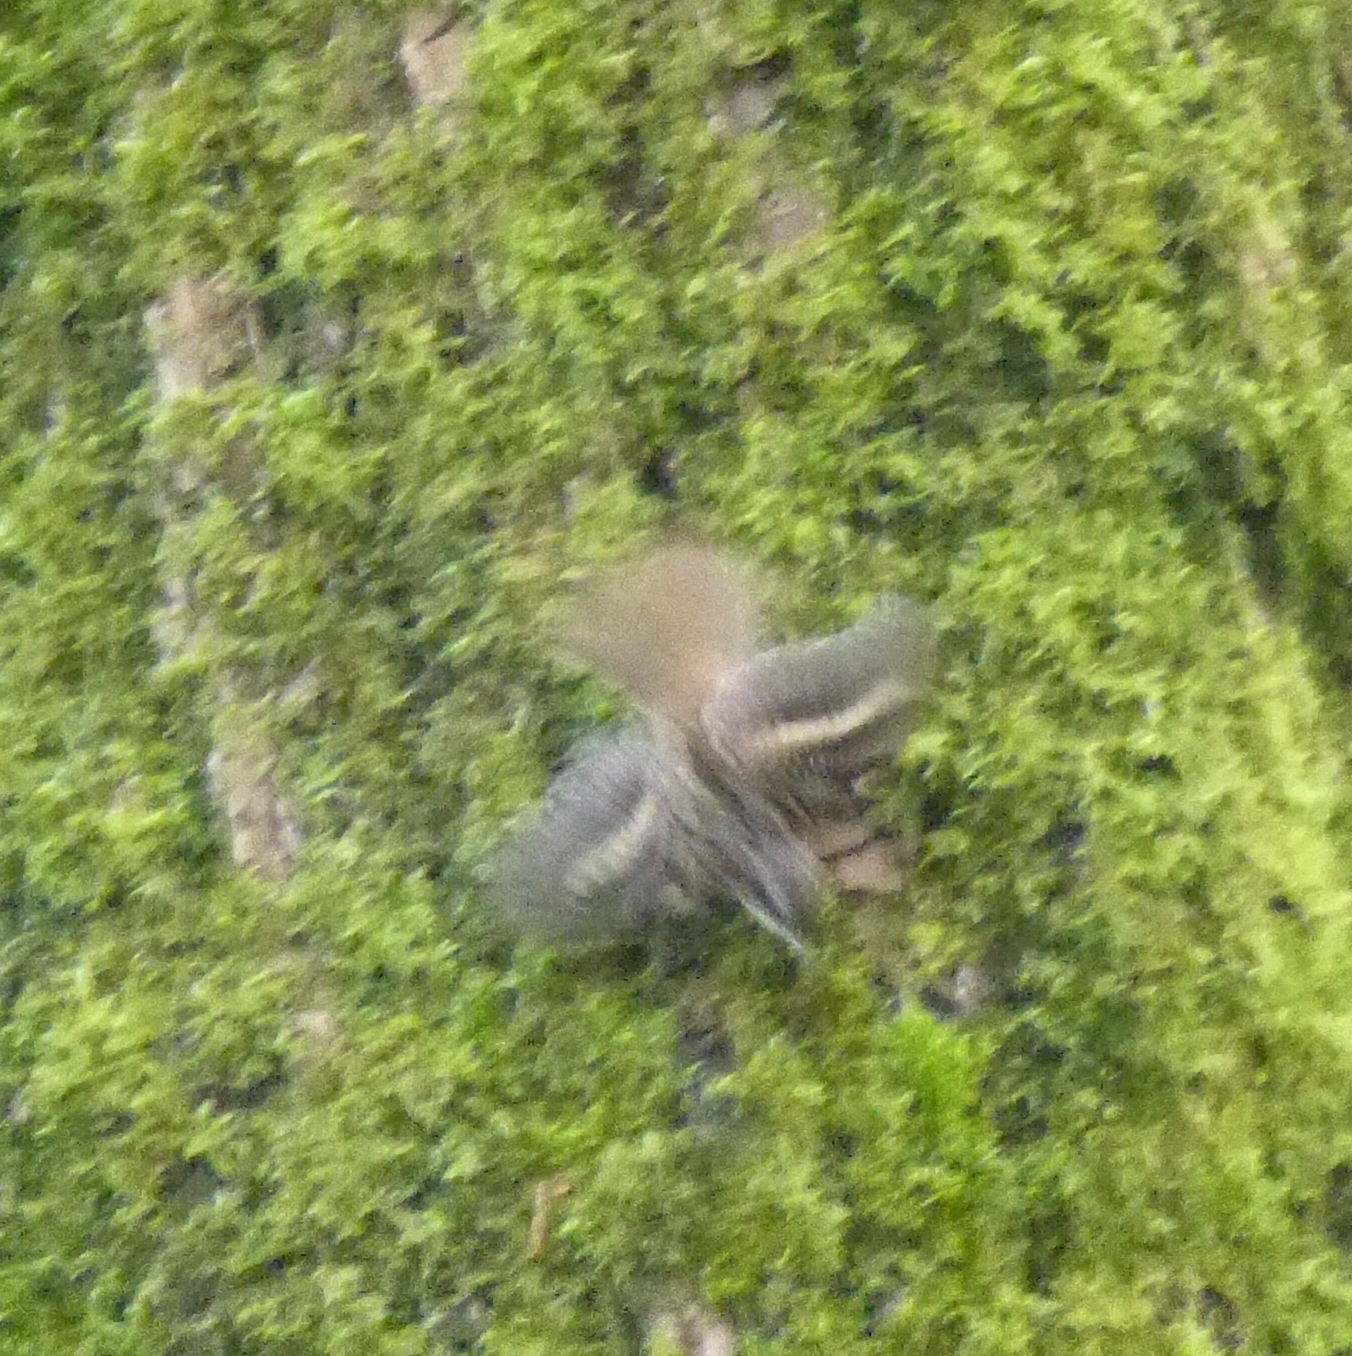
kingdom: Animalia
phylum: Chordata
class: Aves
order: Passeriformes
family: Certhiidae
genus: Certhia
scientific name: Certhia brachydactyla
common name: Short-toed treecreeper
